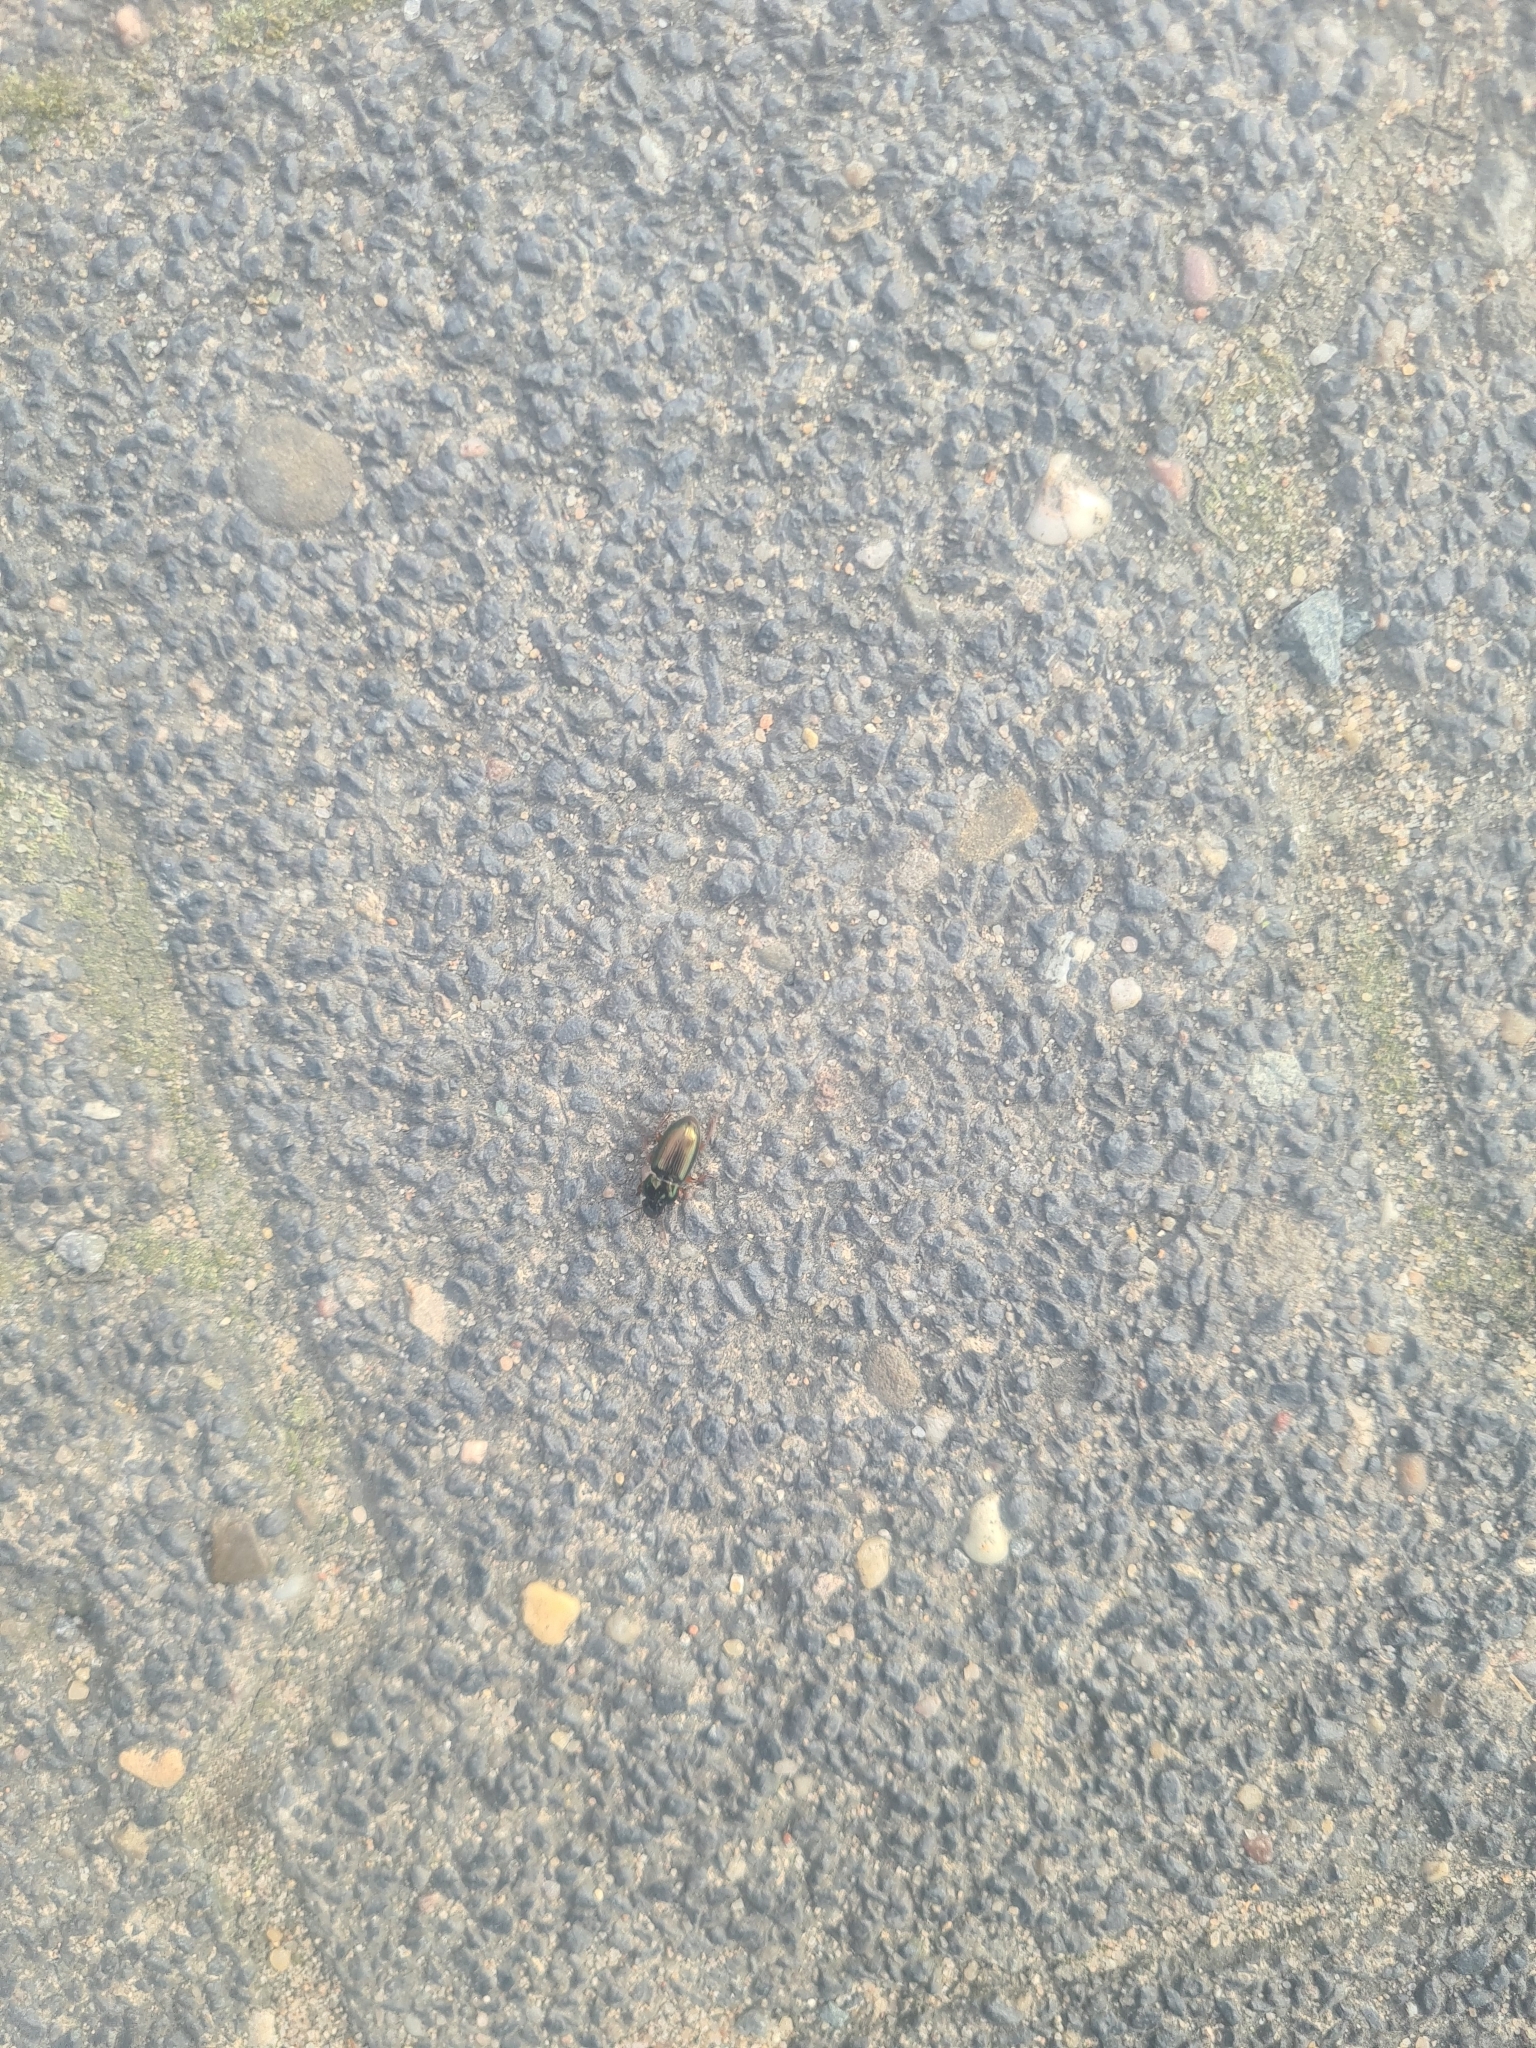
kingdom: Animalia
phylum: Arthropoda
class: Insecta
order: Coleoptera
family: Carabidae
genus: Harpalus
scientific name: Harpalus affinis
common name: Polychrome harp ground beetle
